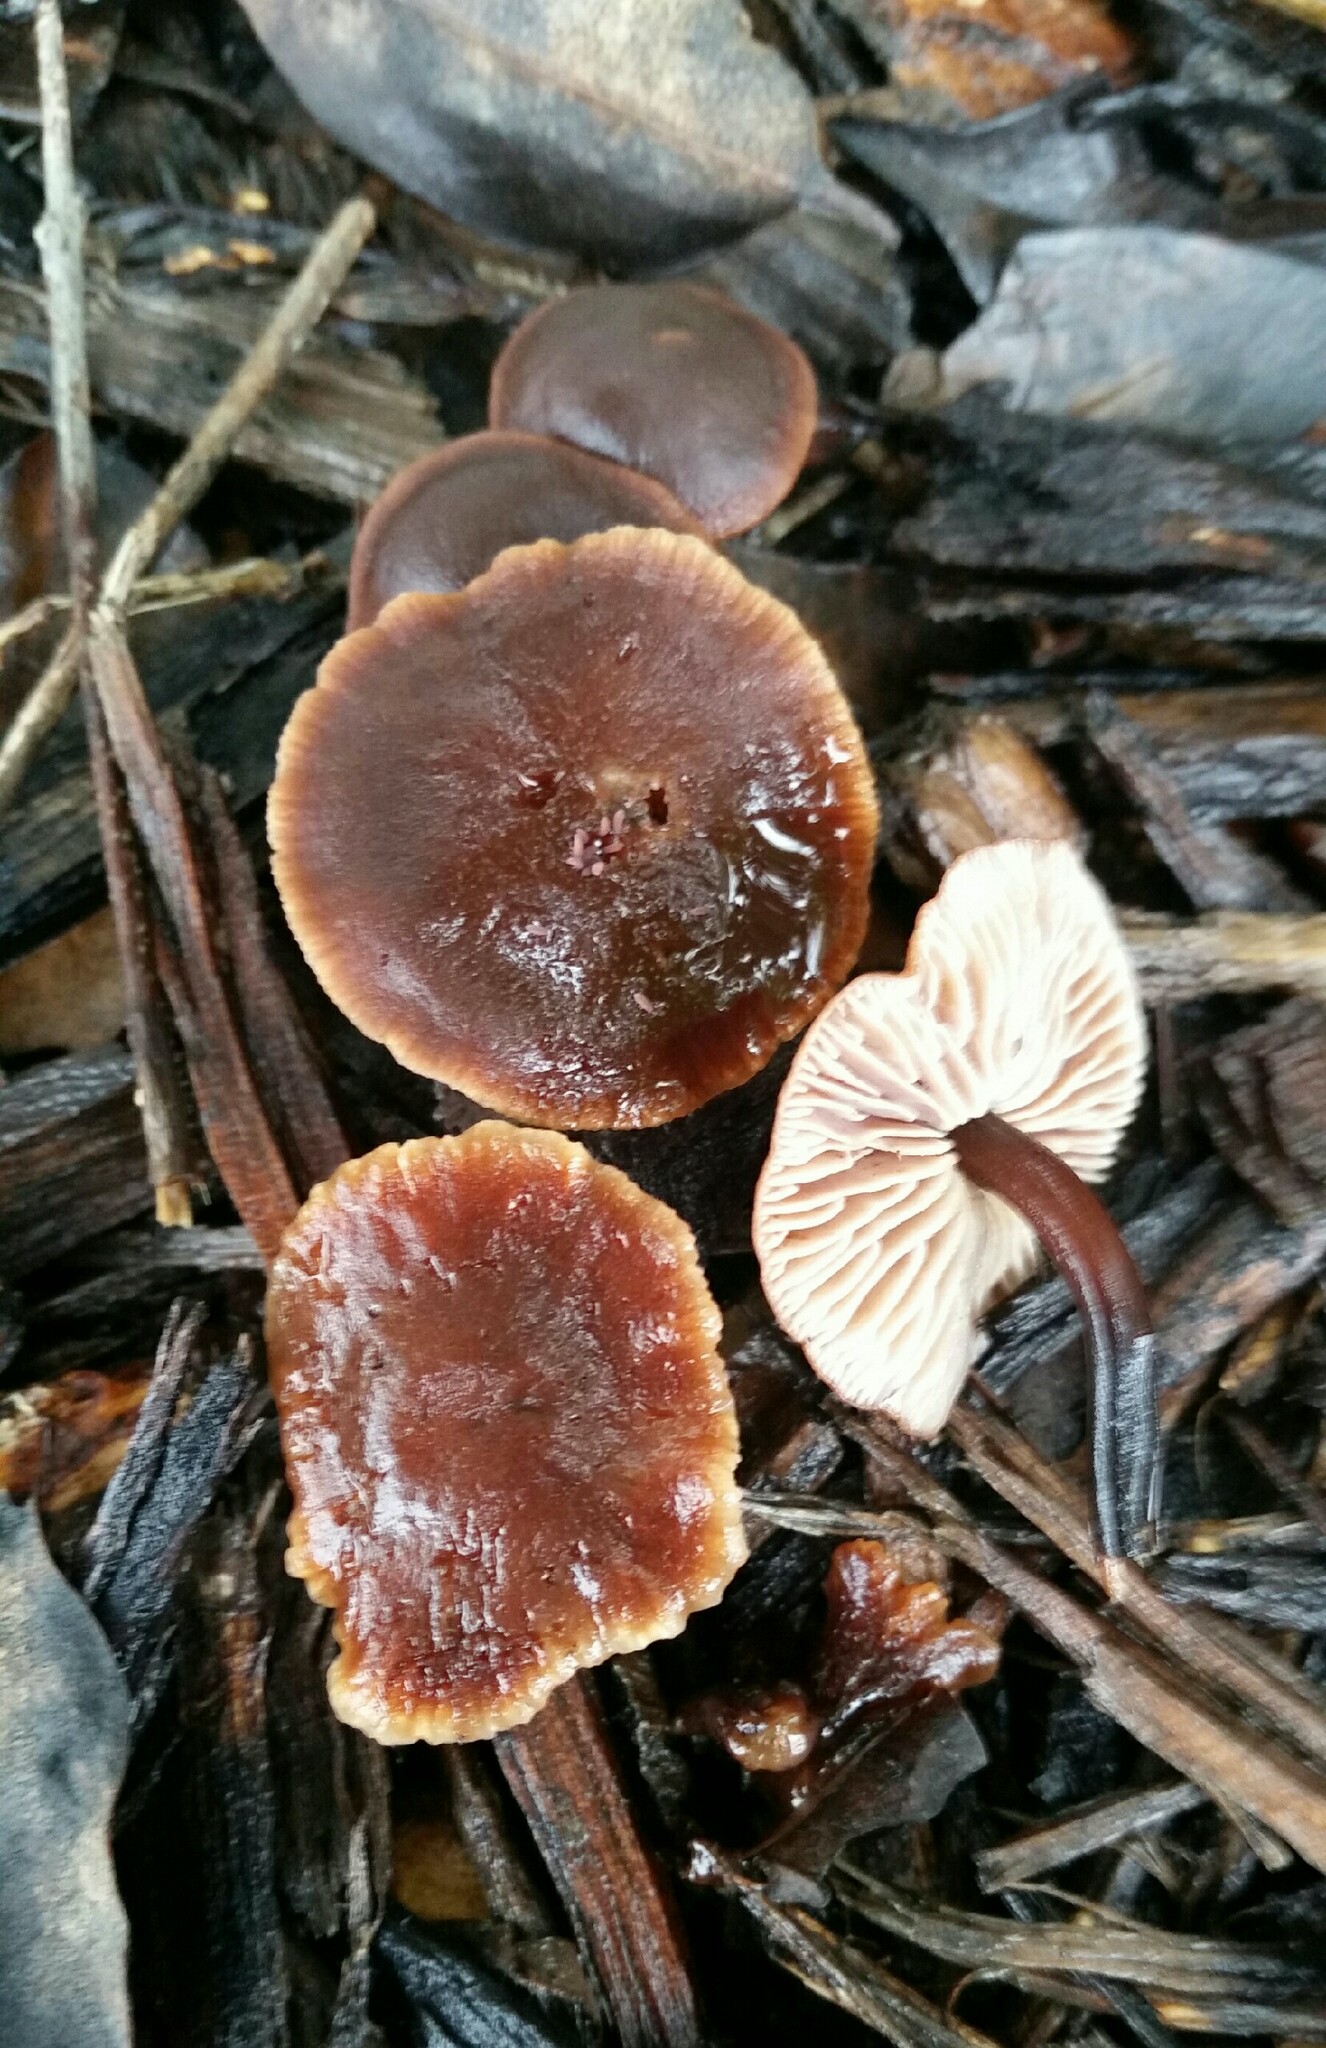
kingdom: Fungi
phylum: Basidiomycota
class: Agaricomycetes
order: Agaricales
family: Omphalotaceae
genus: Gymnopus
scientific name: Gymnopus brassicolens
